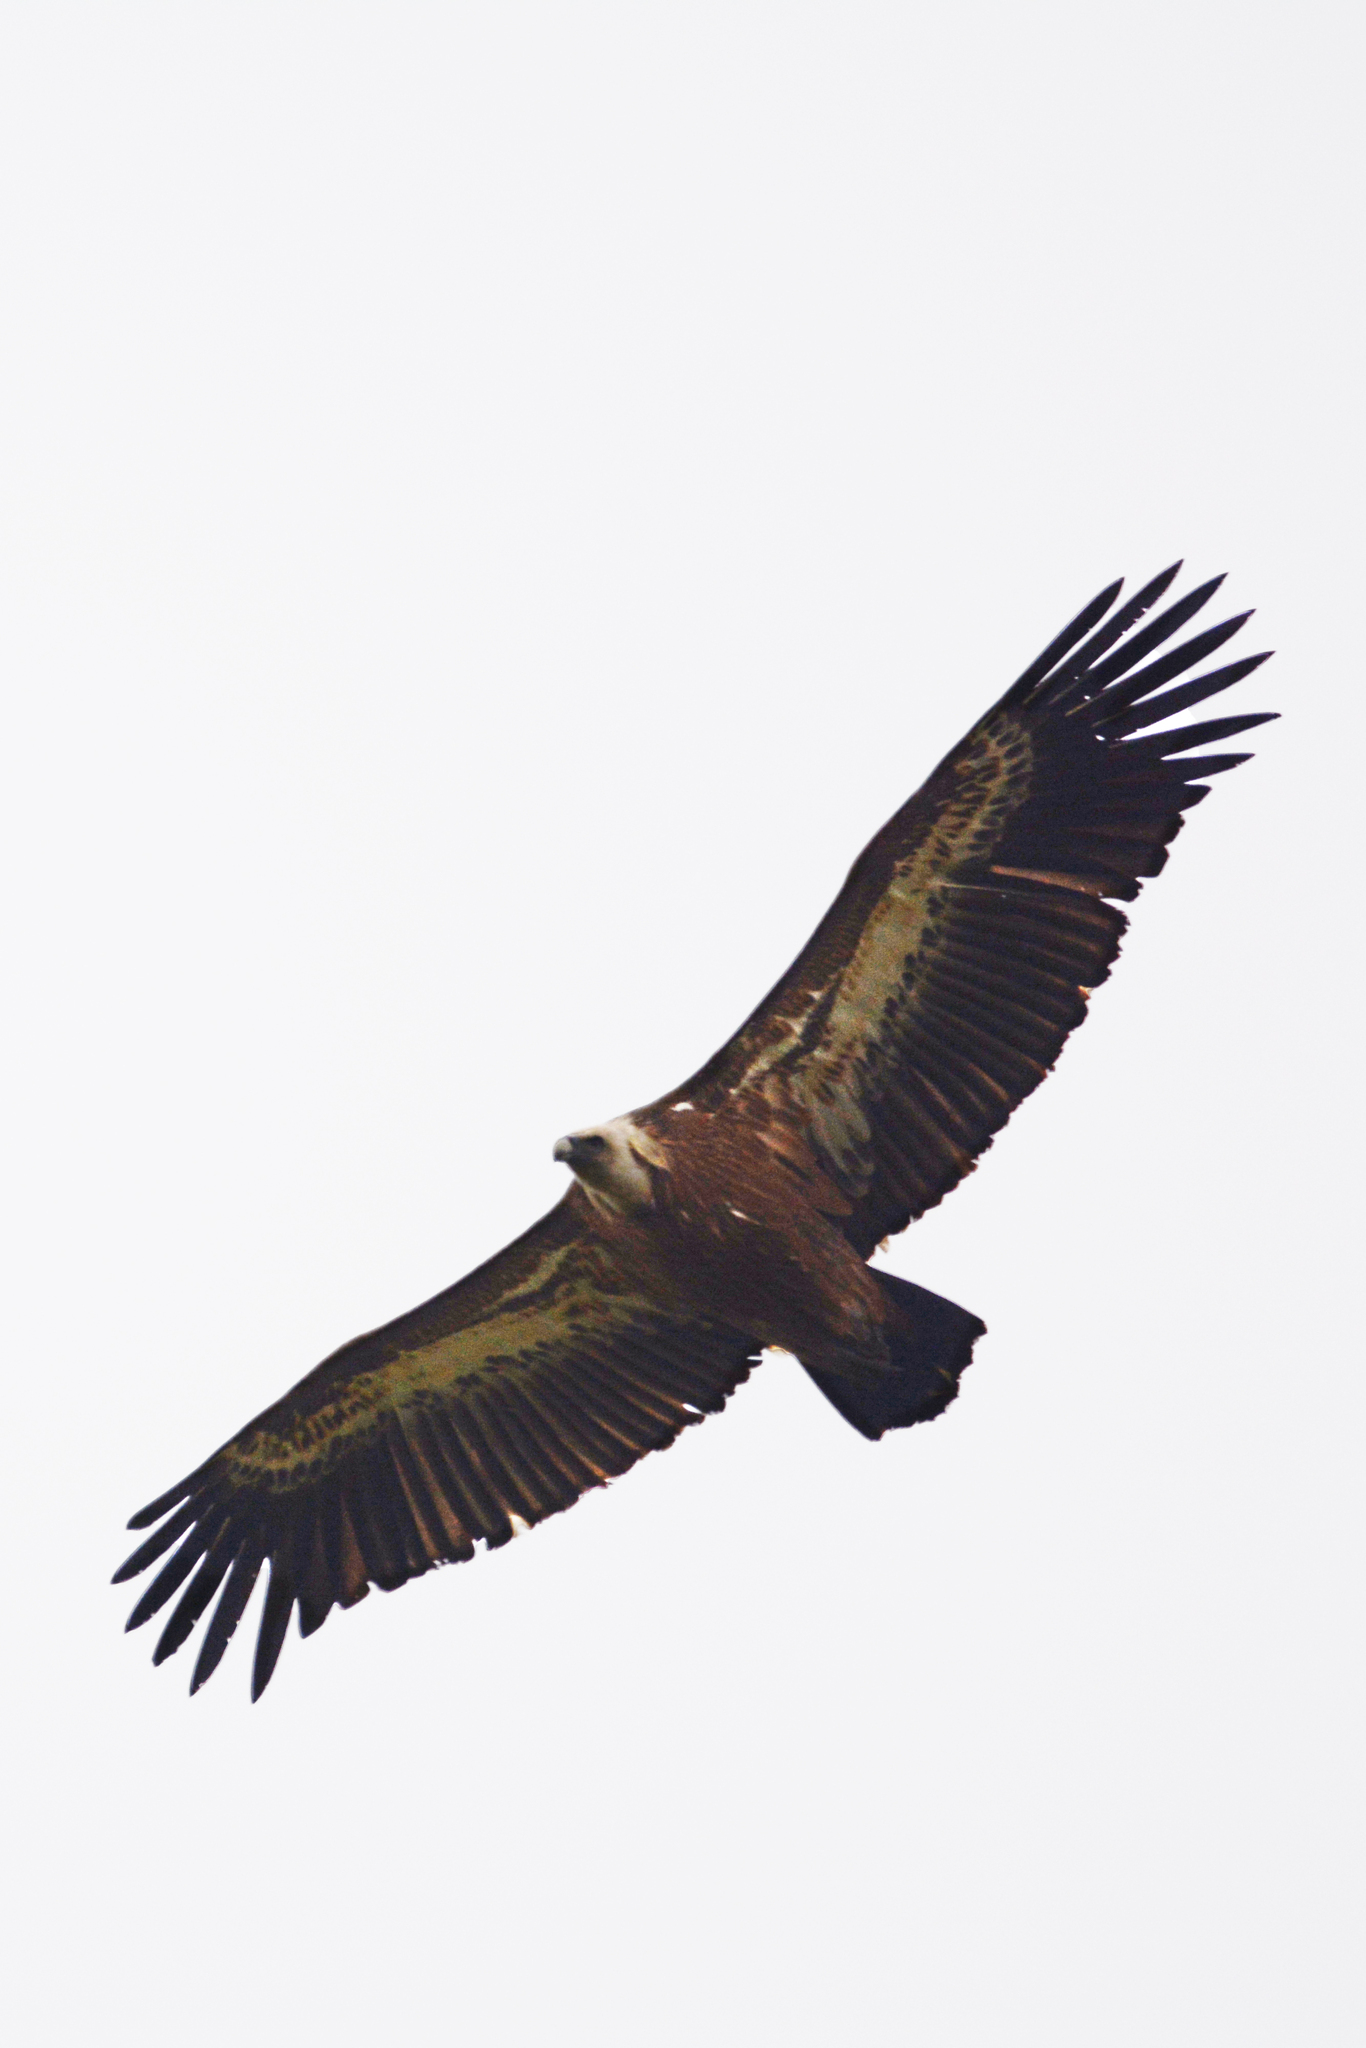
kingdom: Animalia
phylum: Chordata
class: Aves
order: Accipitriformes
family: Accipitridae
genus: Gyps
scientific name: Gyps fulvus
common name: Griffon vulture
